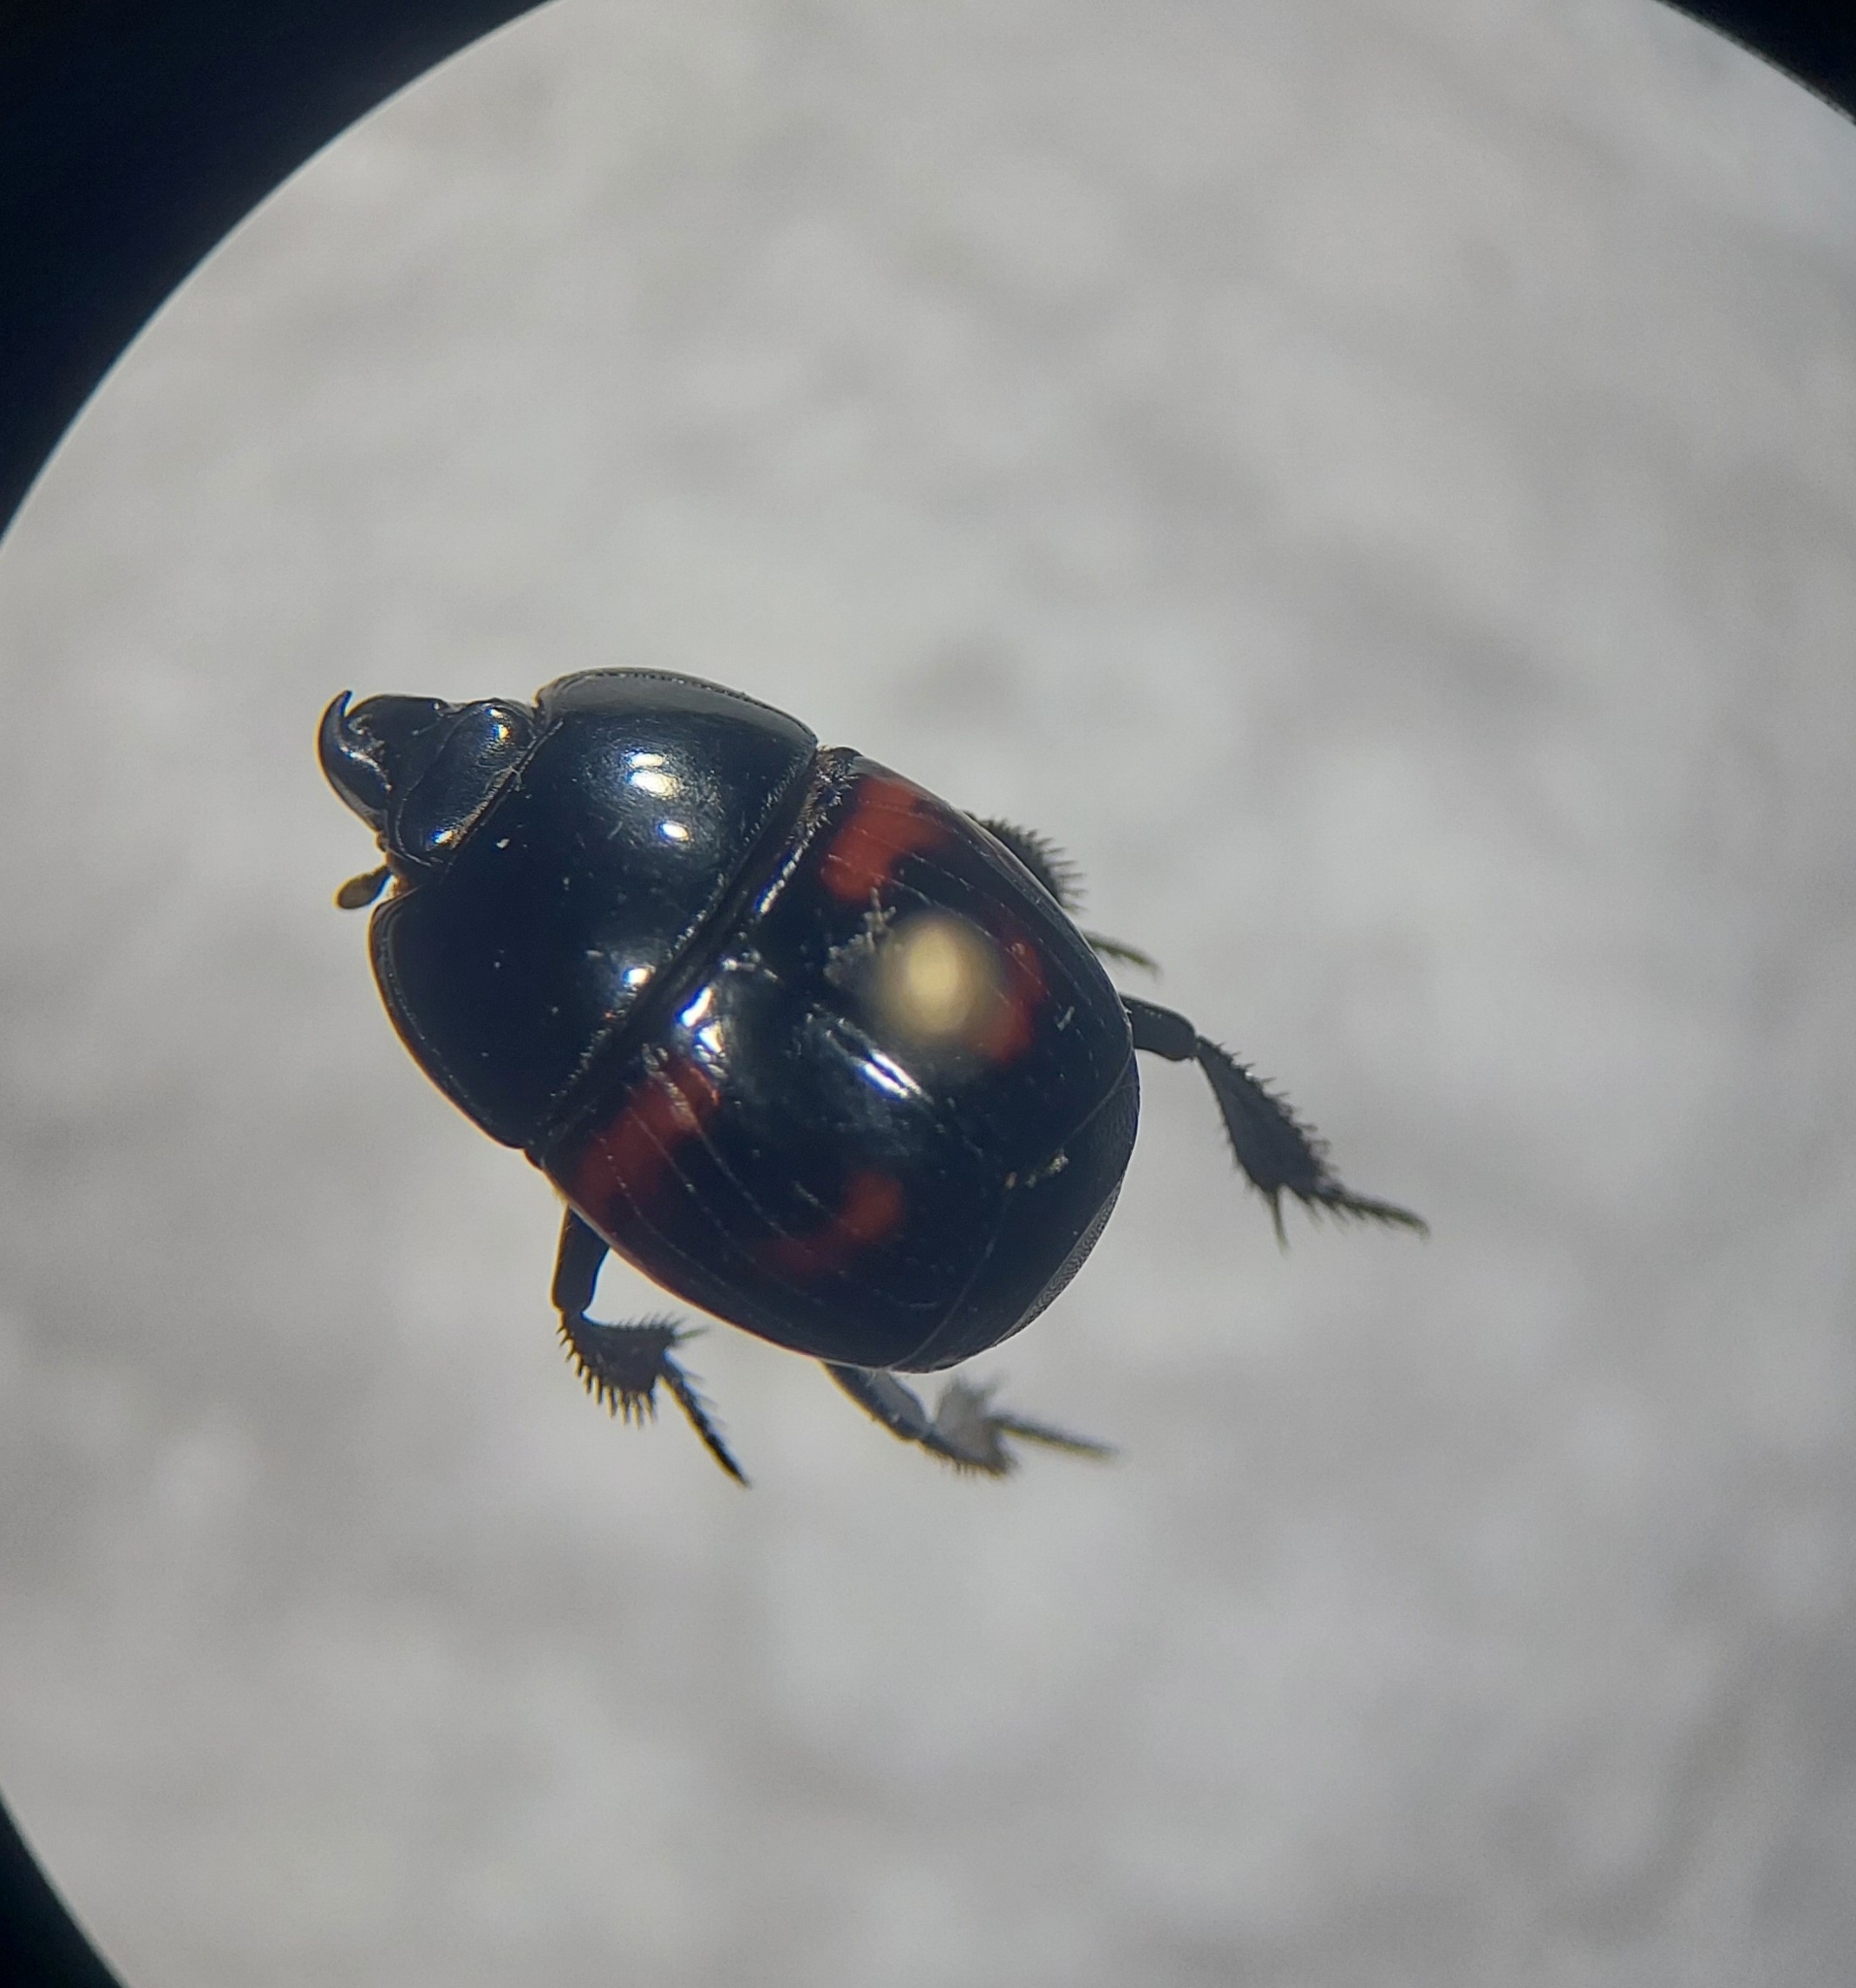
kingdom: Animalia
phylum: Arthropoda
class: Insecta
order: Coleoptera
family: Histeridae
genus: Hister
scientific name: Hister quadrimaculatus
